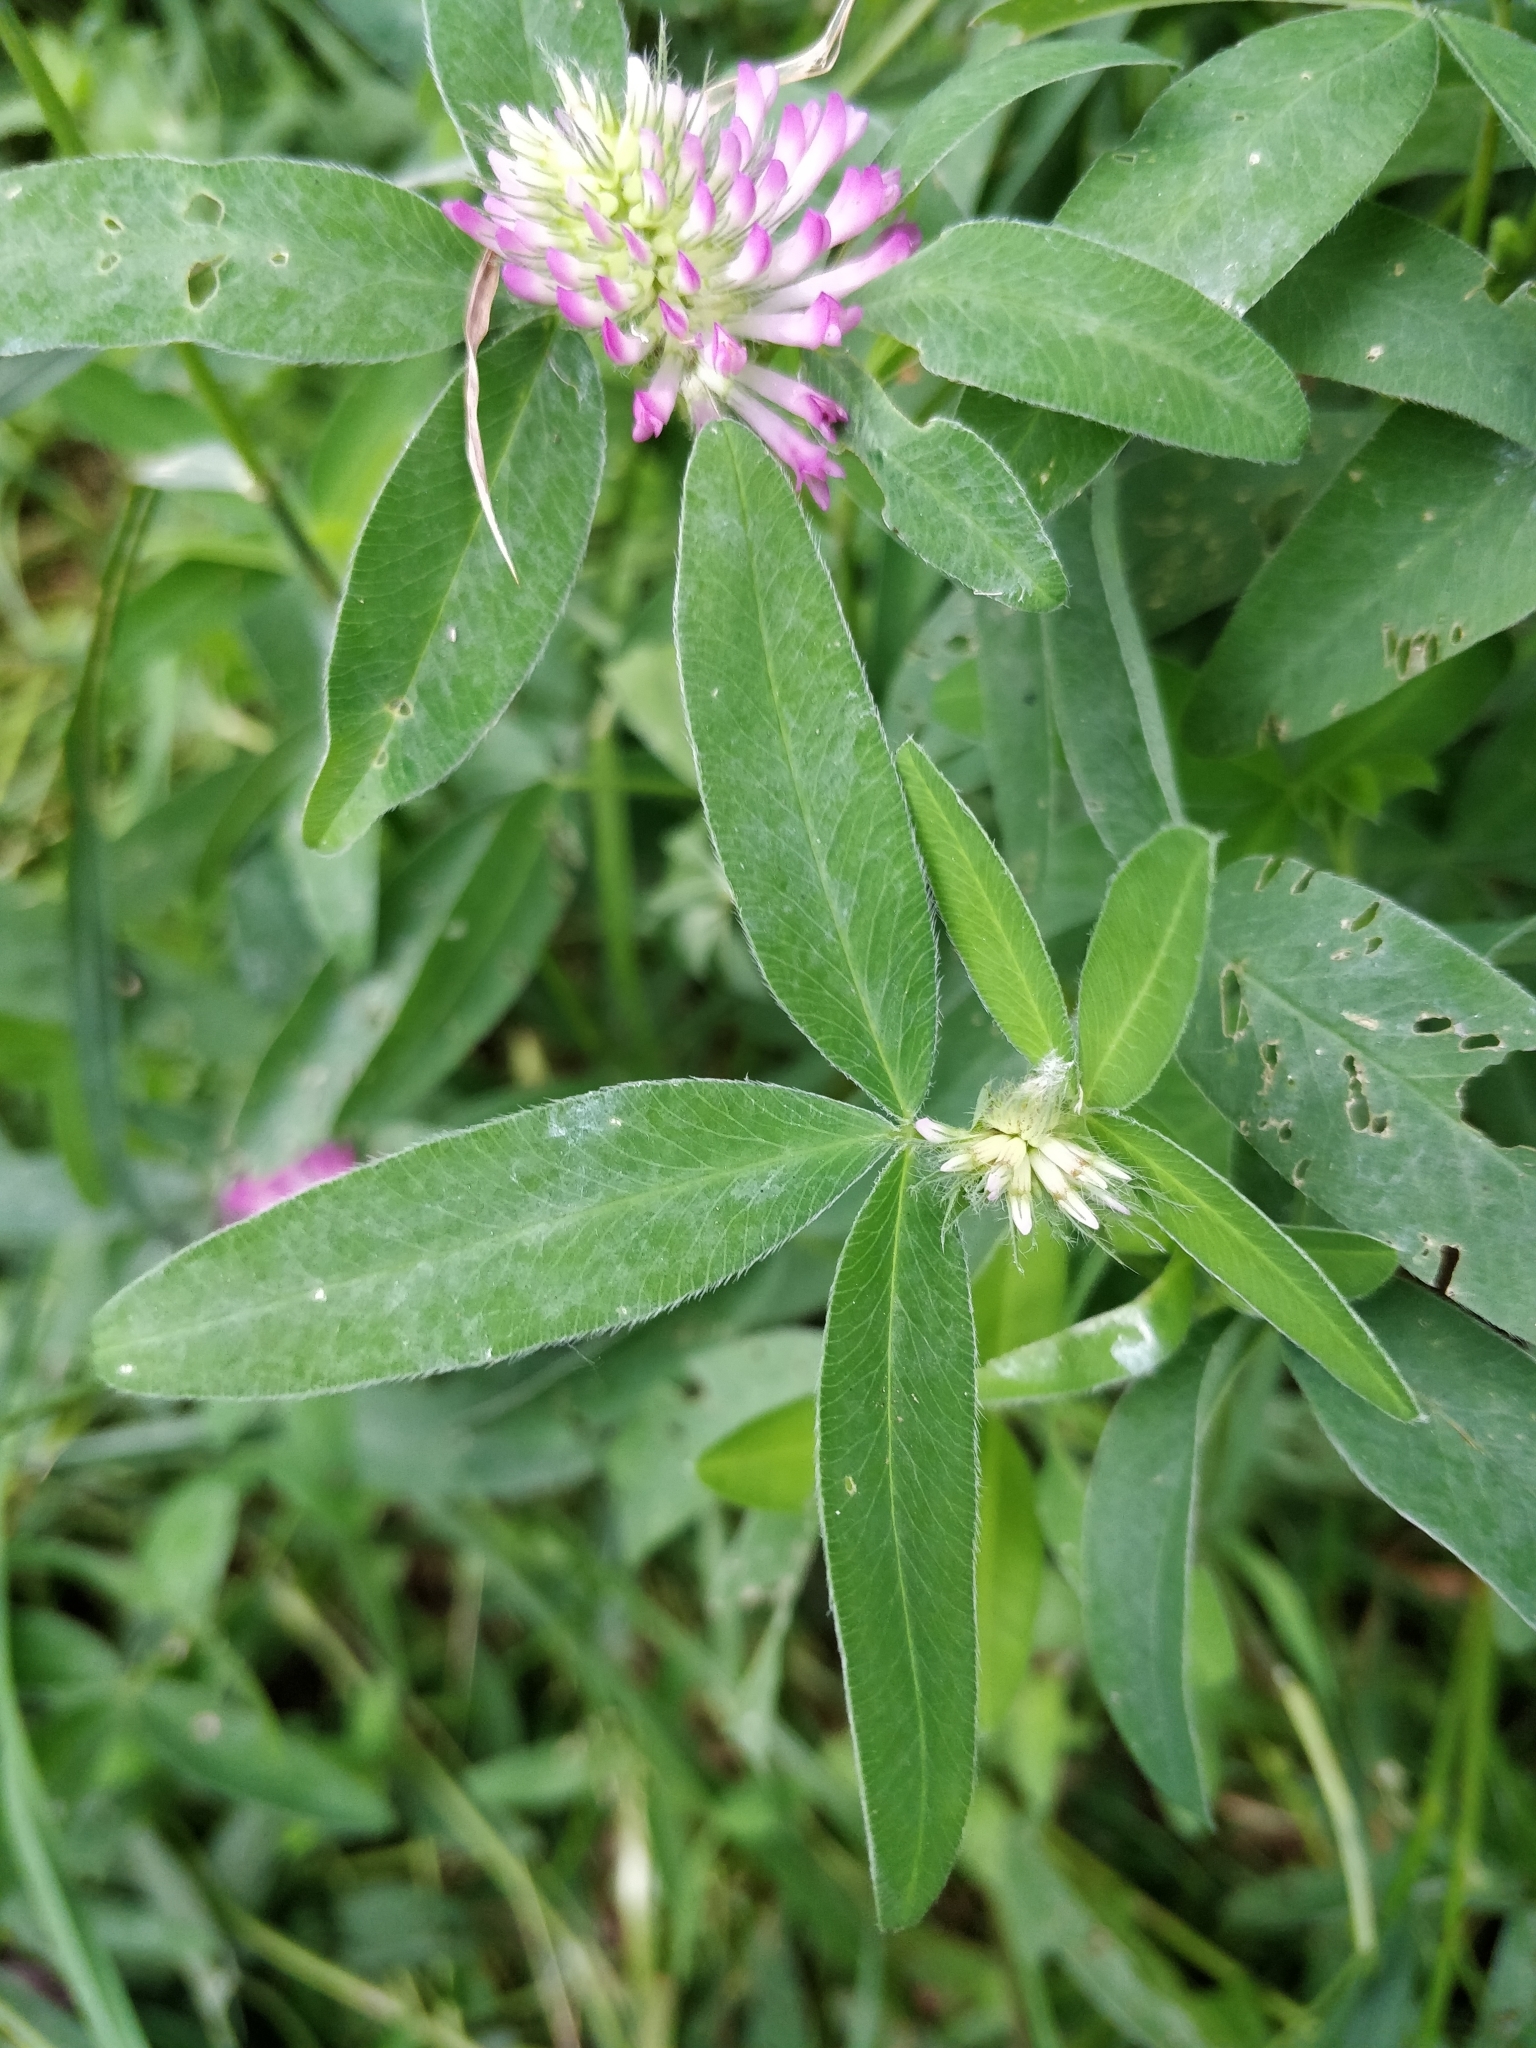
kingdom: Plantae
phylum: Tracheophyta
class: Magnoliopsida
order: Fabales
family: Fabaceae
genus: Trifolium
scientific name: Trifolium medium
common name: Zigzag clover
